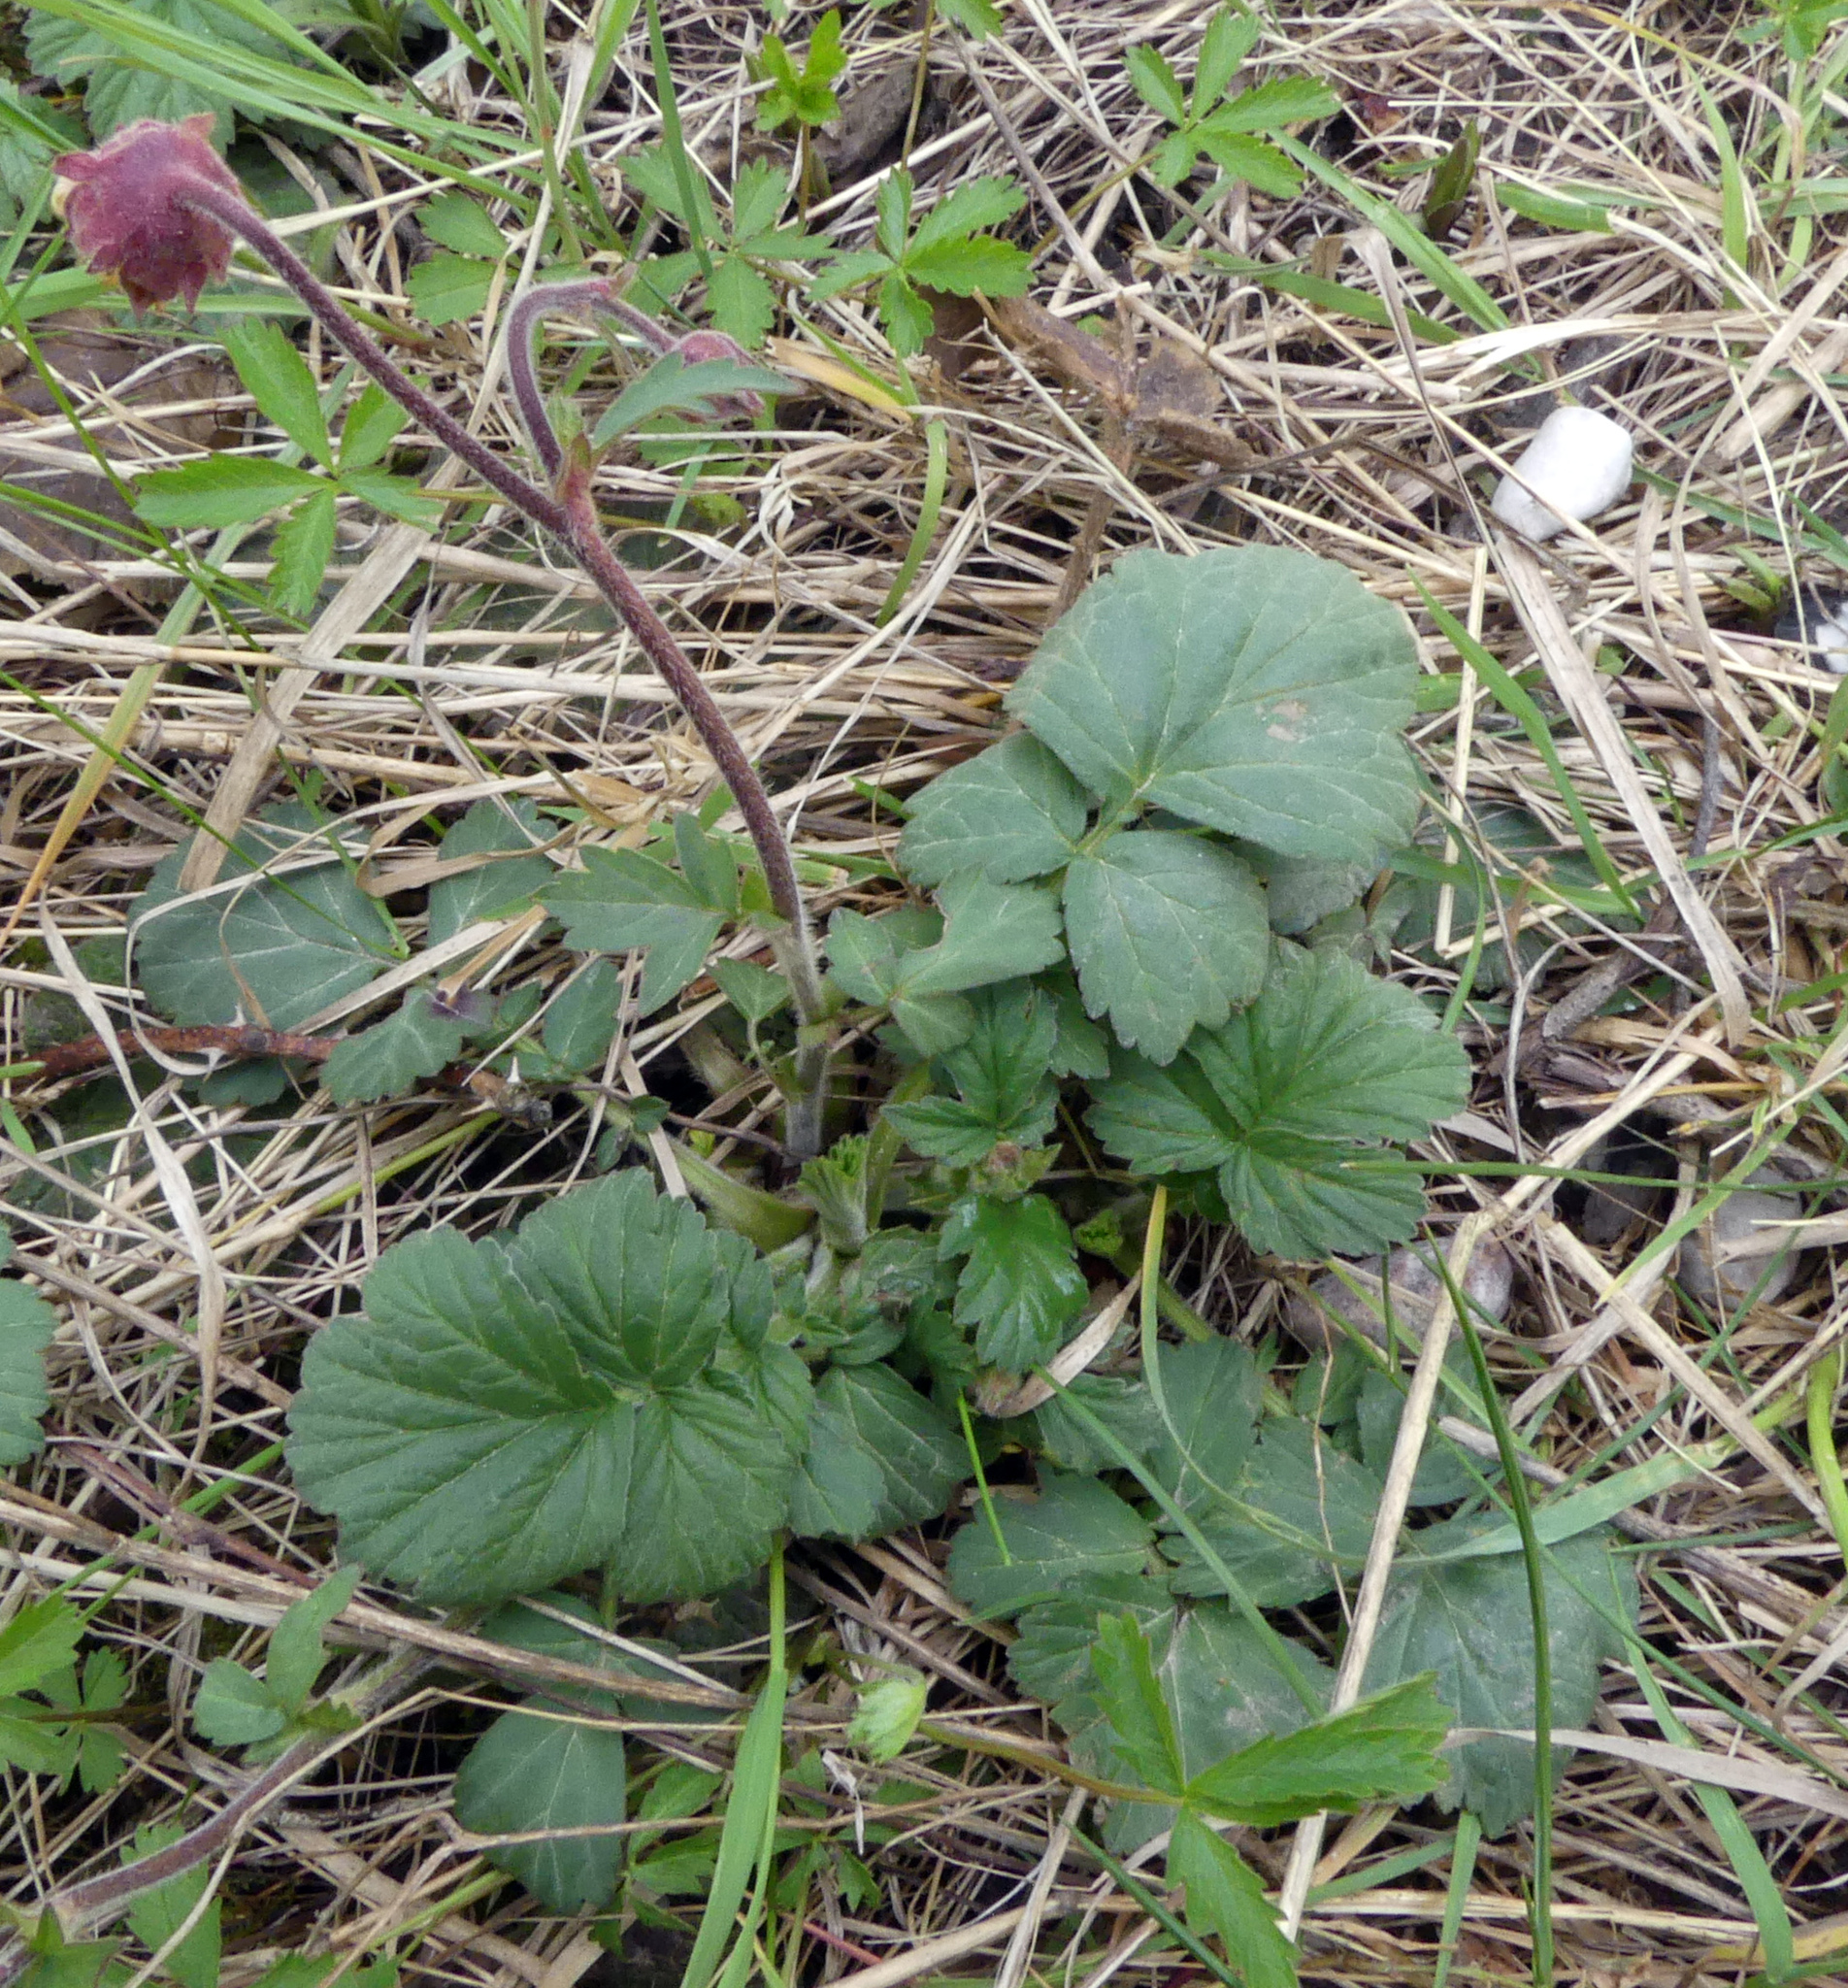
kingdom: Plantae
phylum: Tracheophyta
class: Magnoliopsida
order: Rosales
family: Rosaceae
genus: Geum
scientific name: Geum rivale
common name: Water avens
